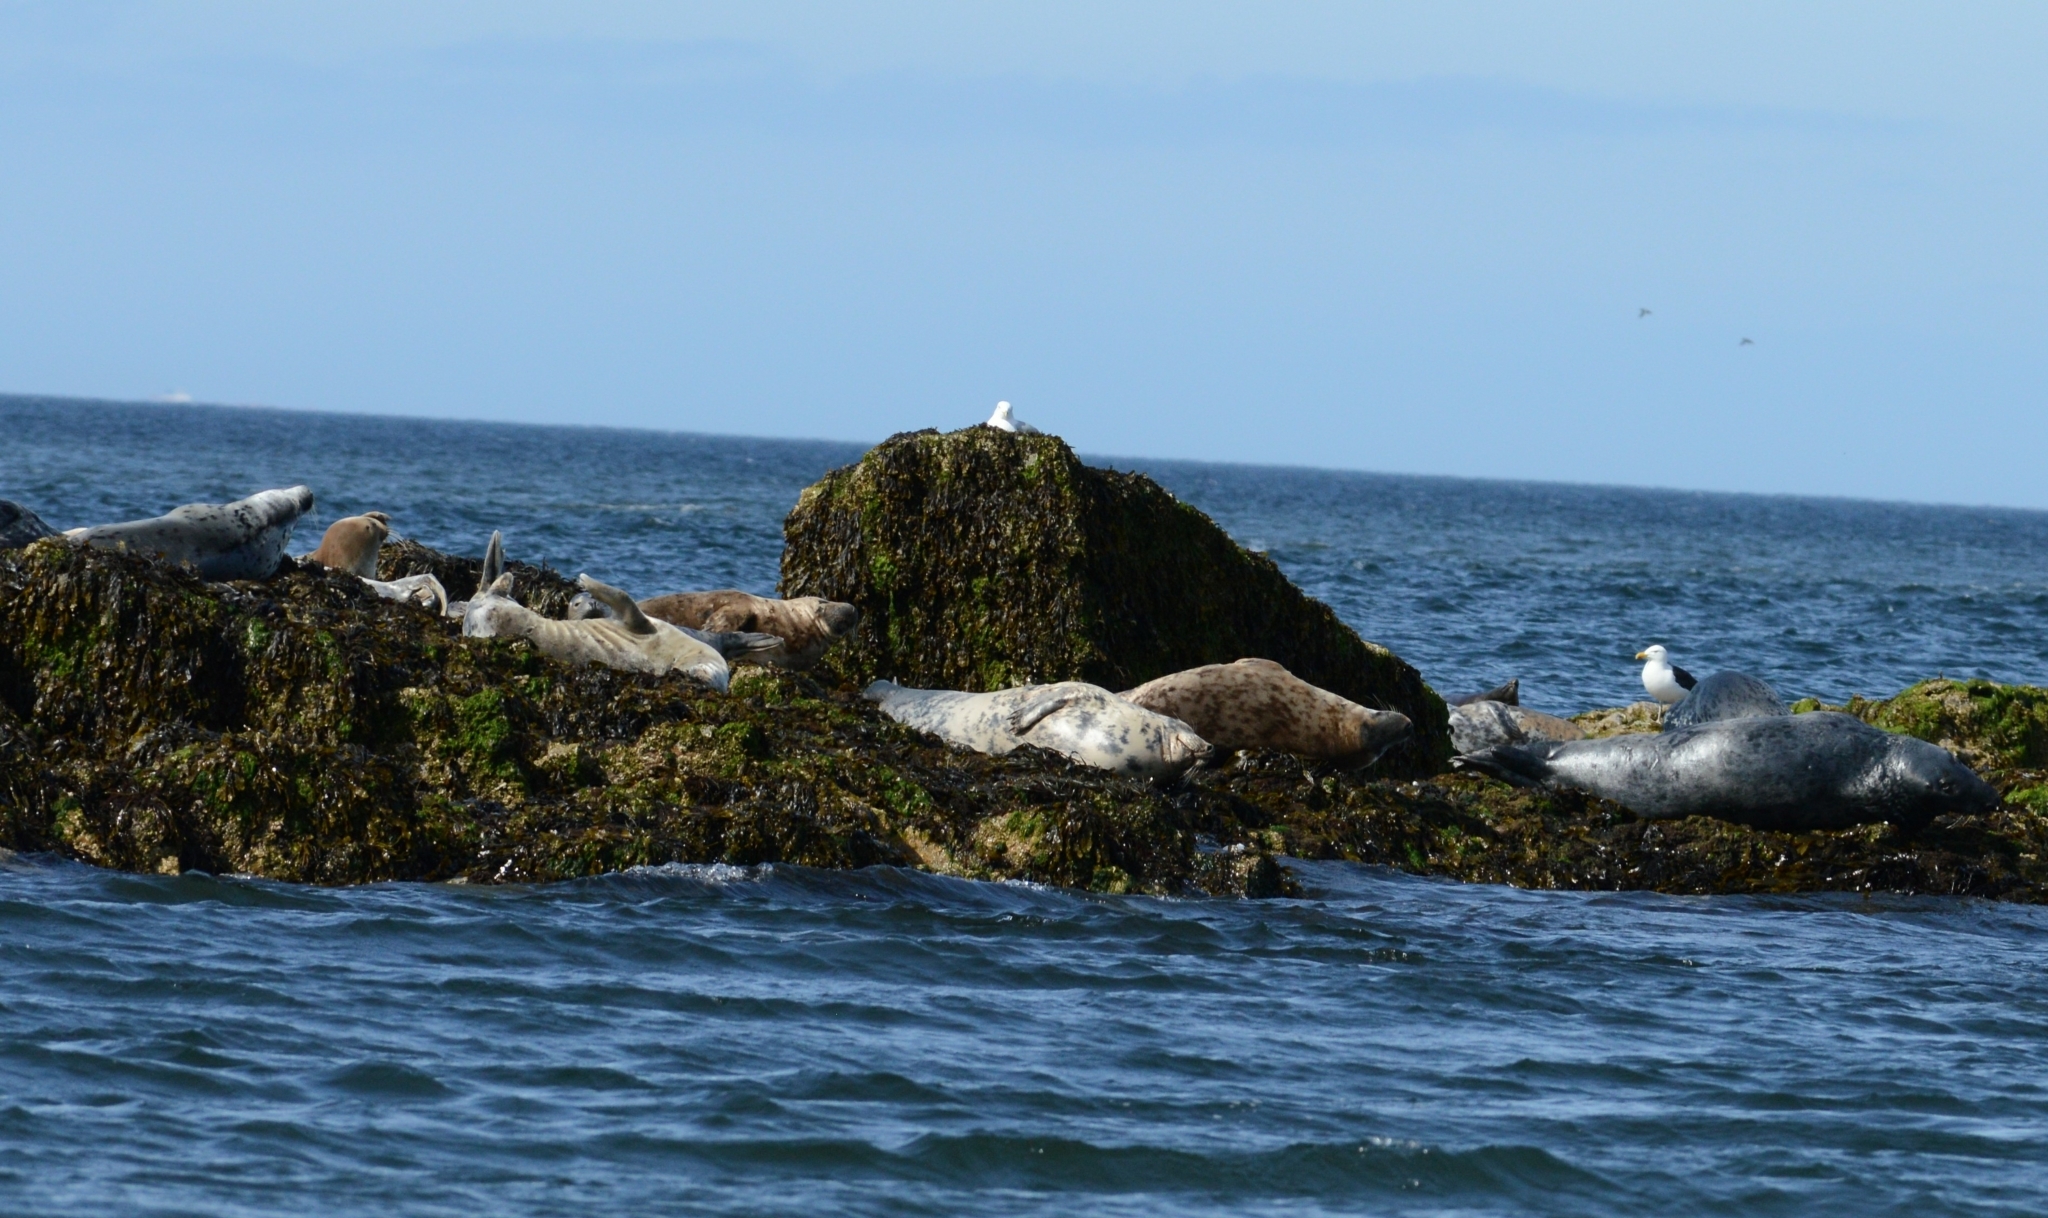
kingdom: Animalia
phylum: Chordata
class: Mammalia
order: Carnivora
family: Phocidae
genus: Halichoerus
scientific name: Halichoerus grypus
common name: Grey seal
